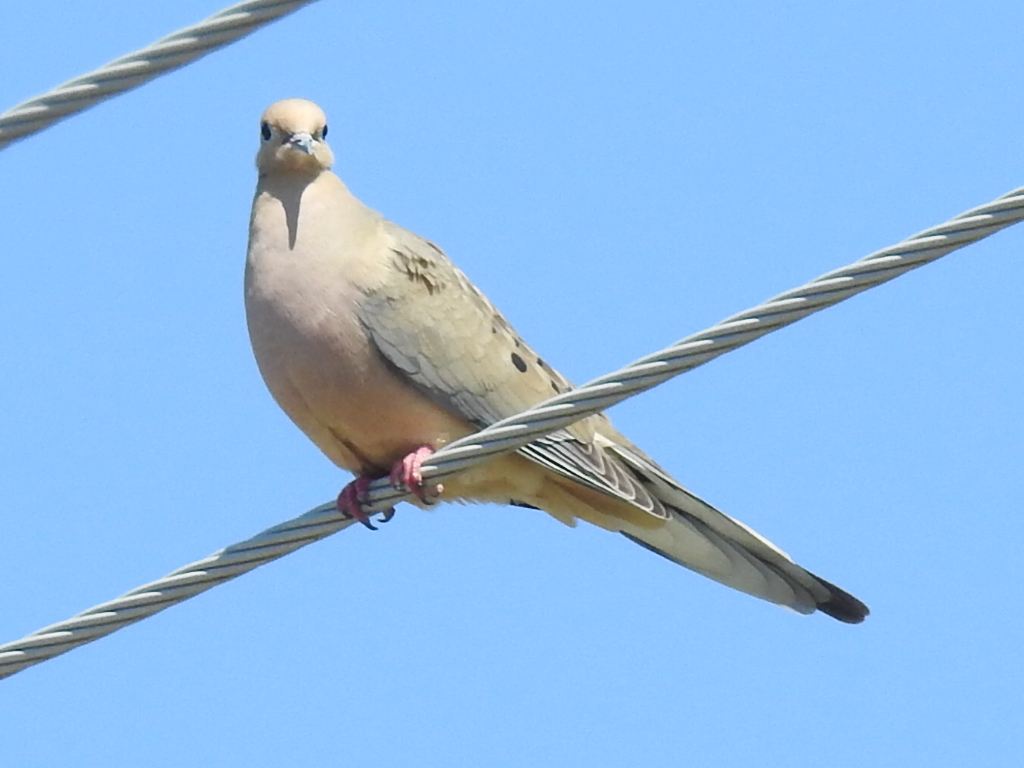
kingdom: Animalia
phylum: Chordata
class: Aves
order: Columbiformes
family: Columbidae
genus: Zenaida
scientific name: Zenaida macroura
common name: Mourning dove
